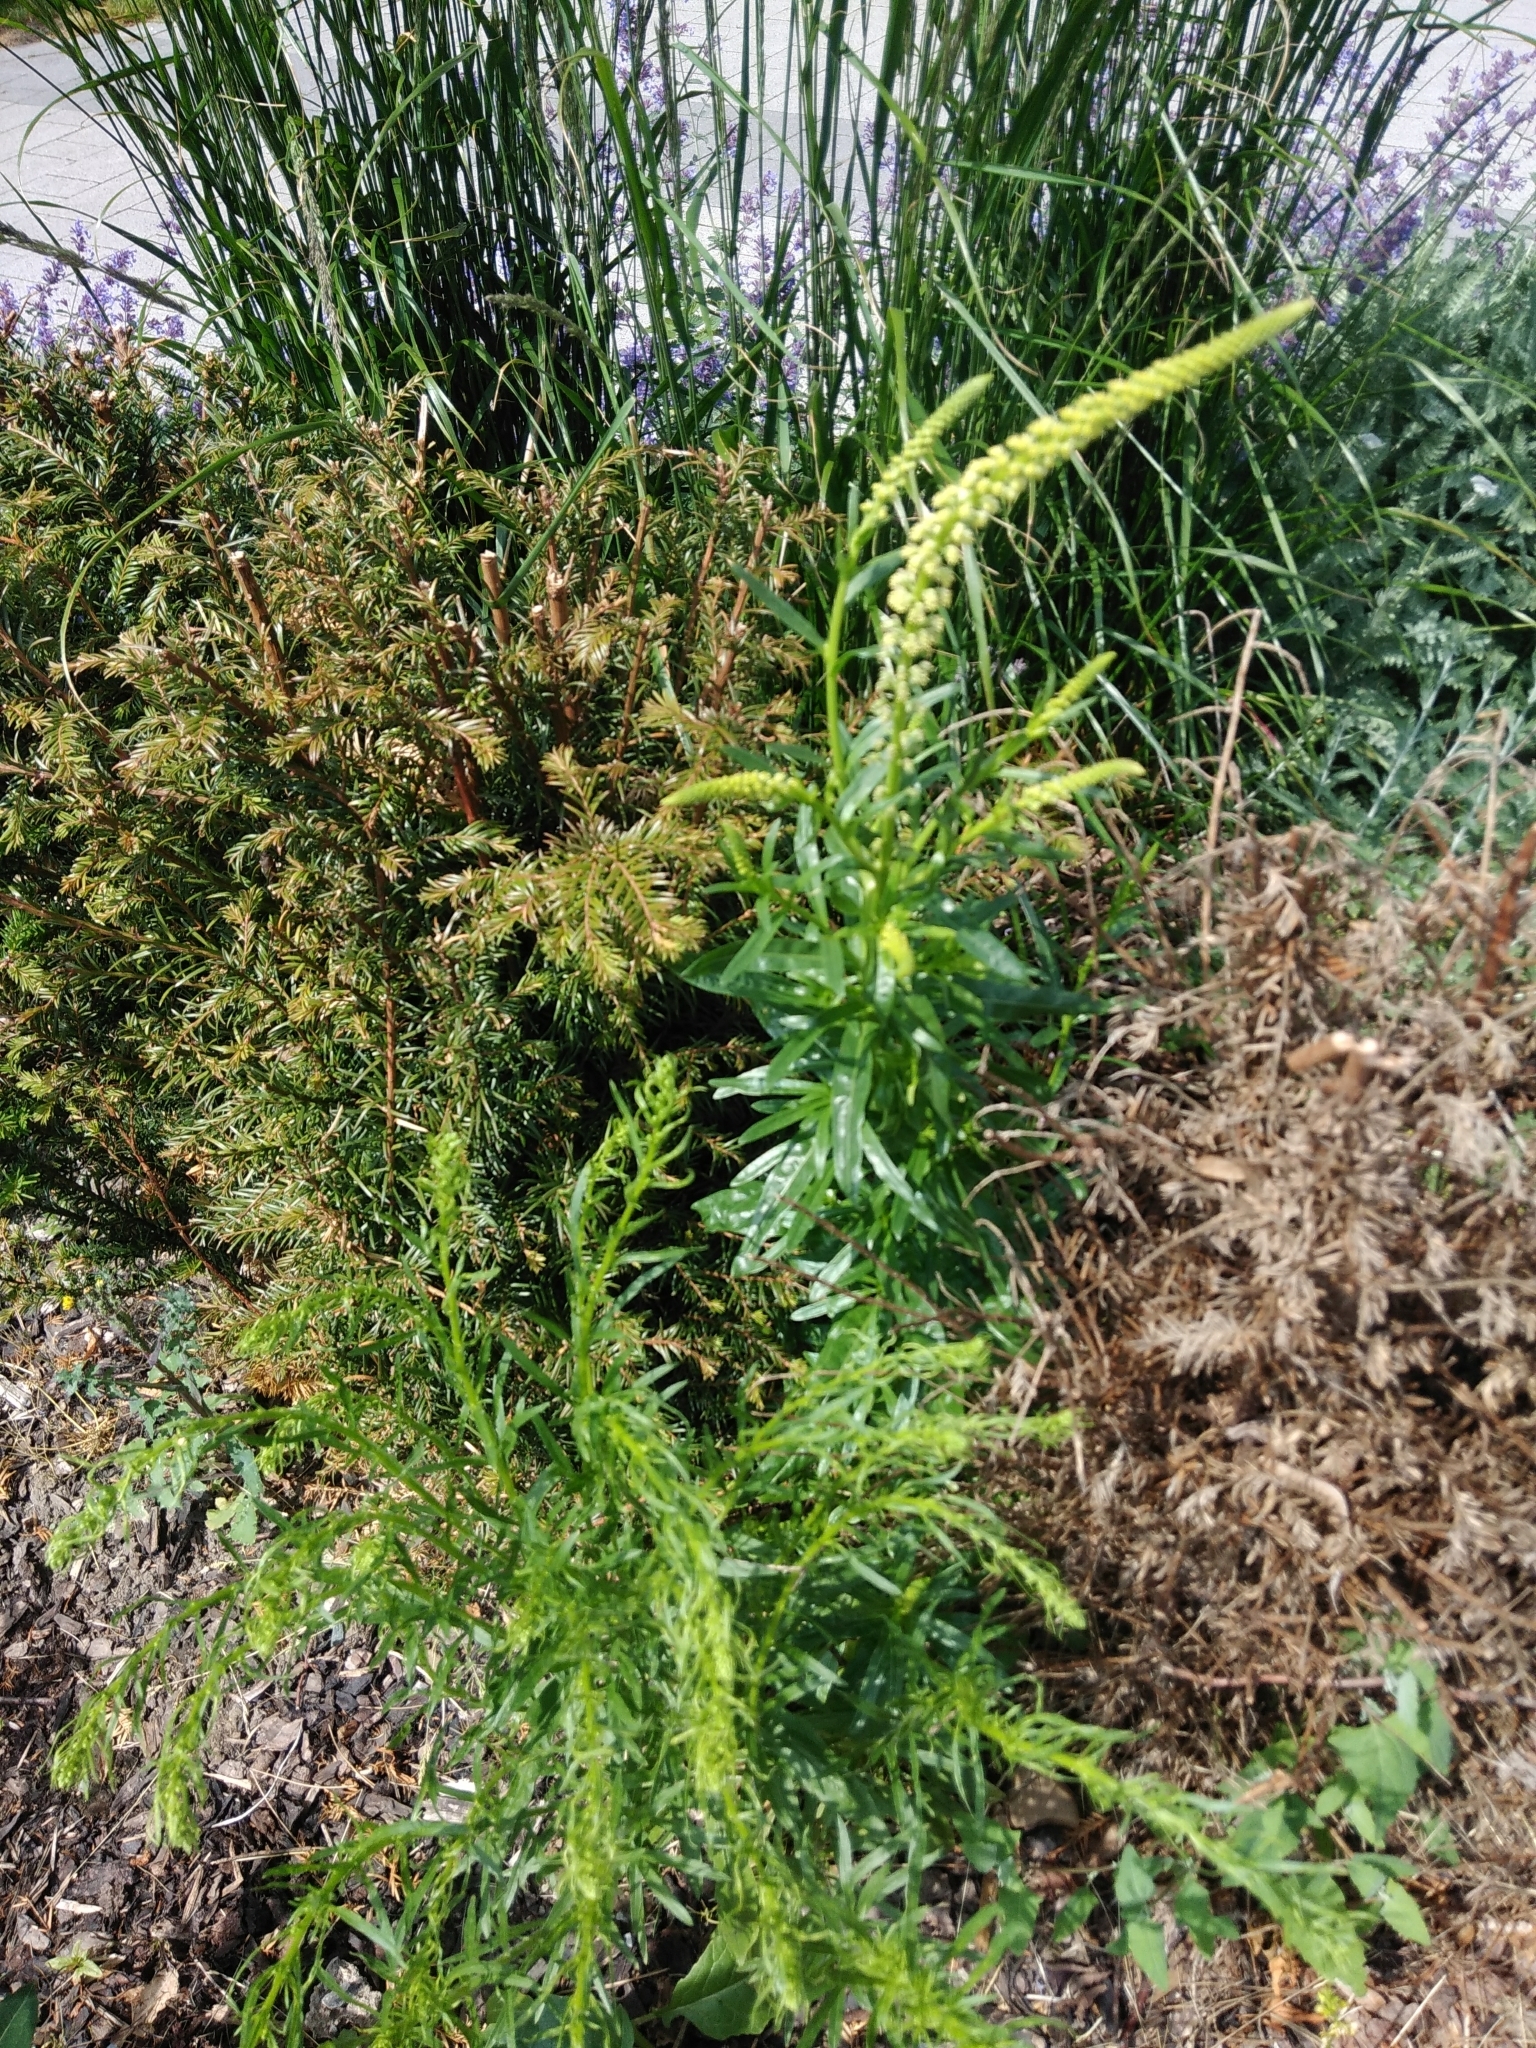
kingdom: Plantae
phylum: Tracheophyta
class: Magnoliopsida
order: Brassicales
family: Resedaceae
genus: Reseda
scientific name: Reseda luteola
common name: Weld
